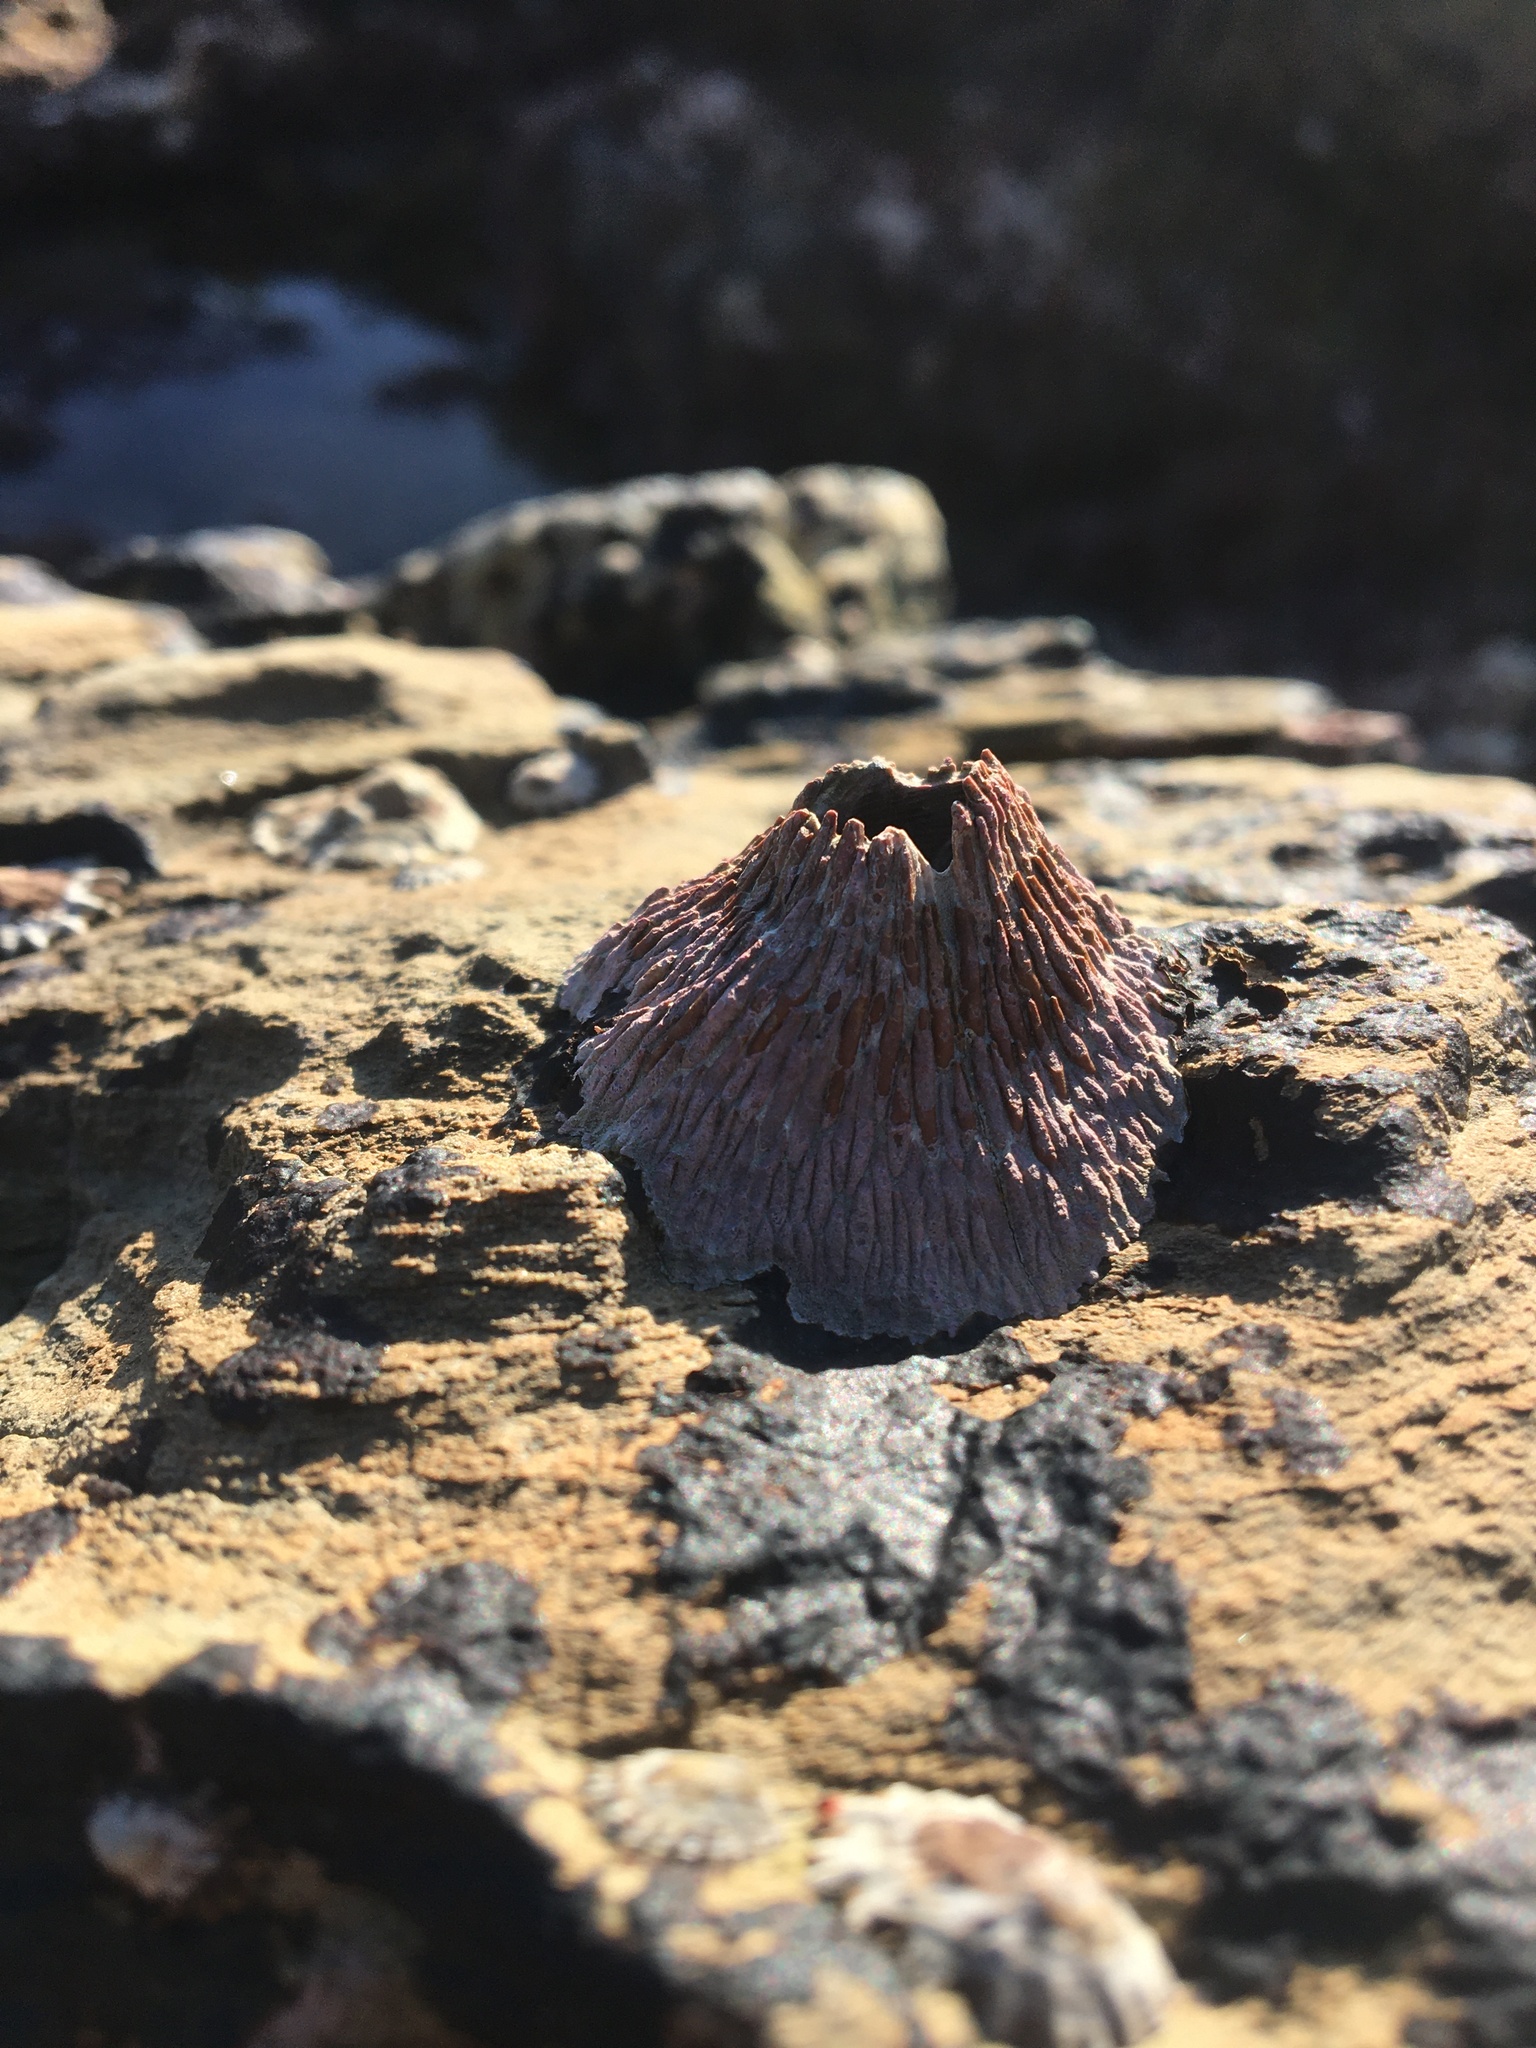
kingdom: Animalia
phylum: Arthropoda
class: Maxillopoda
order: Sessilia
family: Tetraclitidae
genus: Tetraclita
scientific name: Tetraclita rubescens
